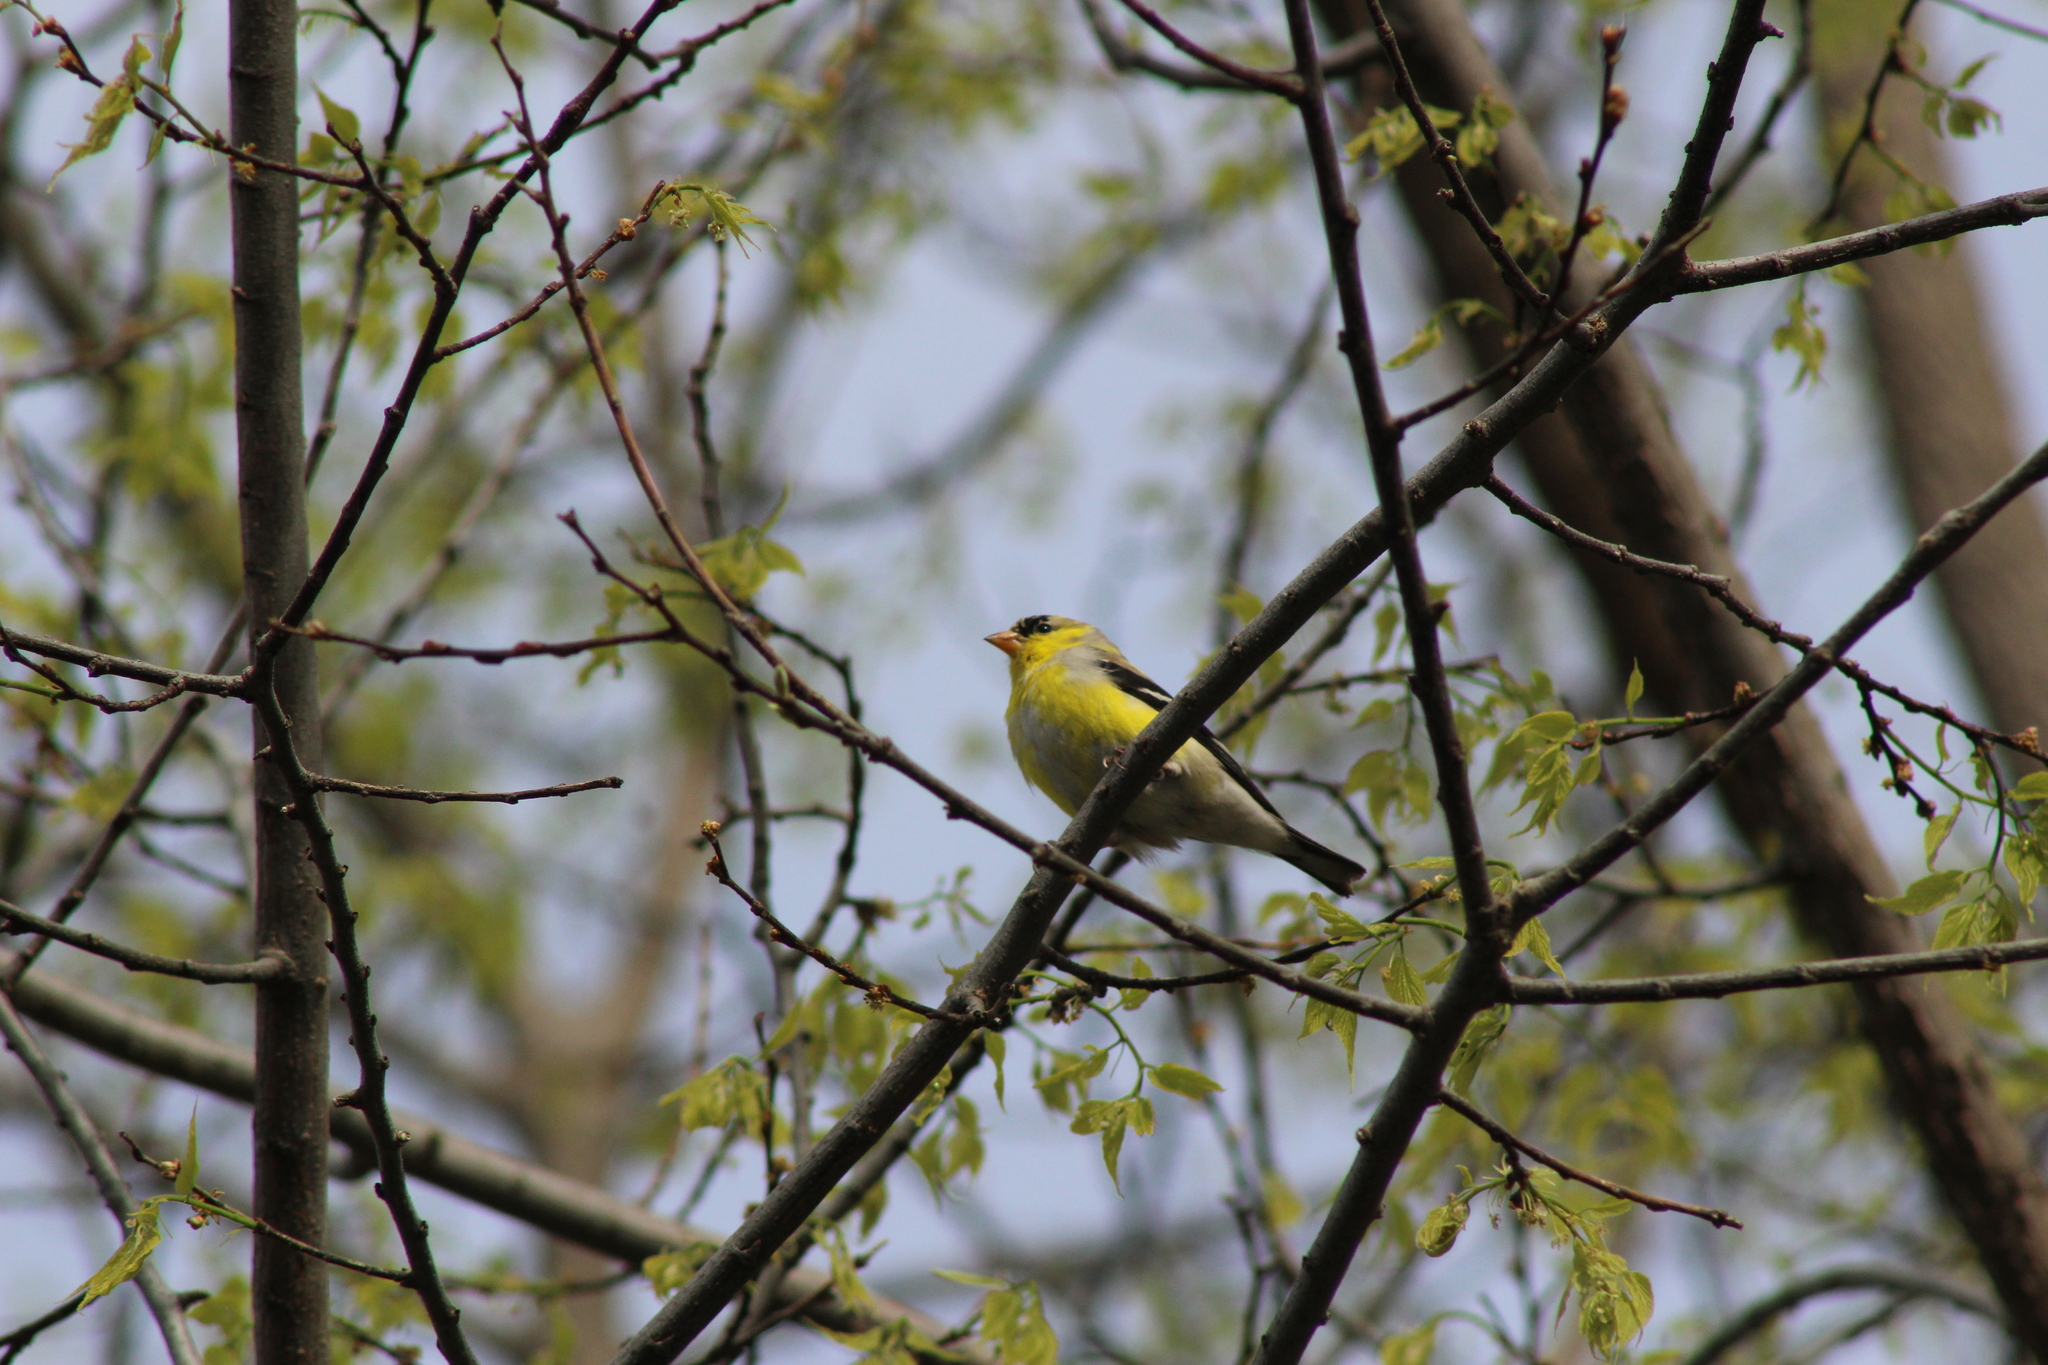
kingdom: Animalia
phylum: Chordata
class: Aves
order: Passeriformes
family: Fringillidae
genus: Spinus
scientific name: Spinus tristis
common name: American goldfinch
